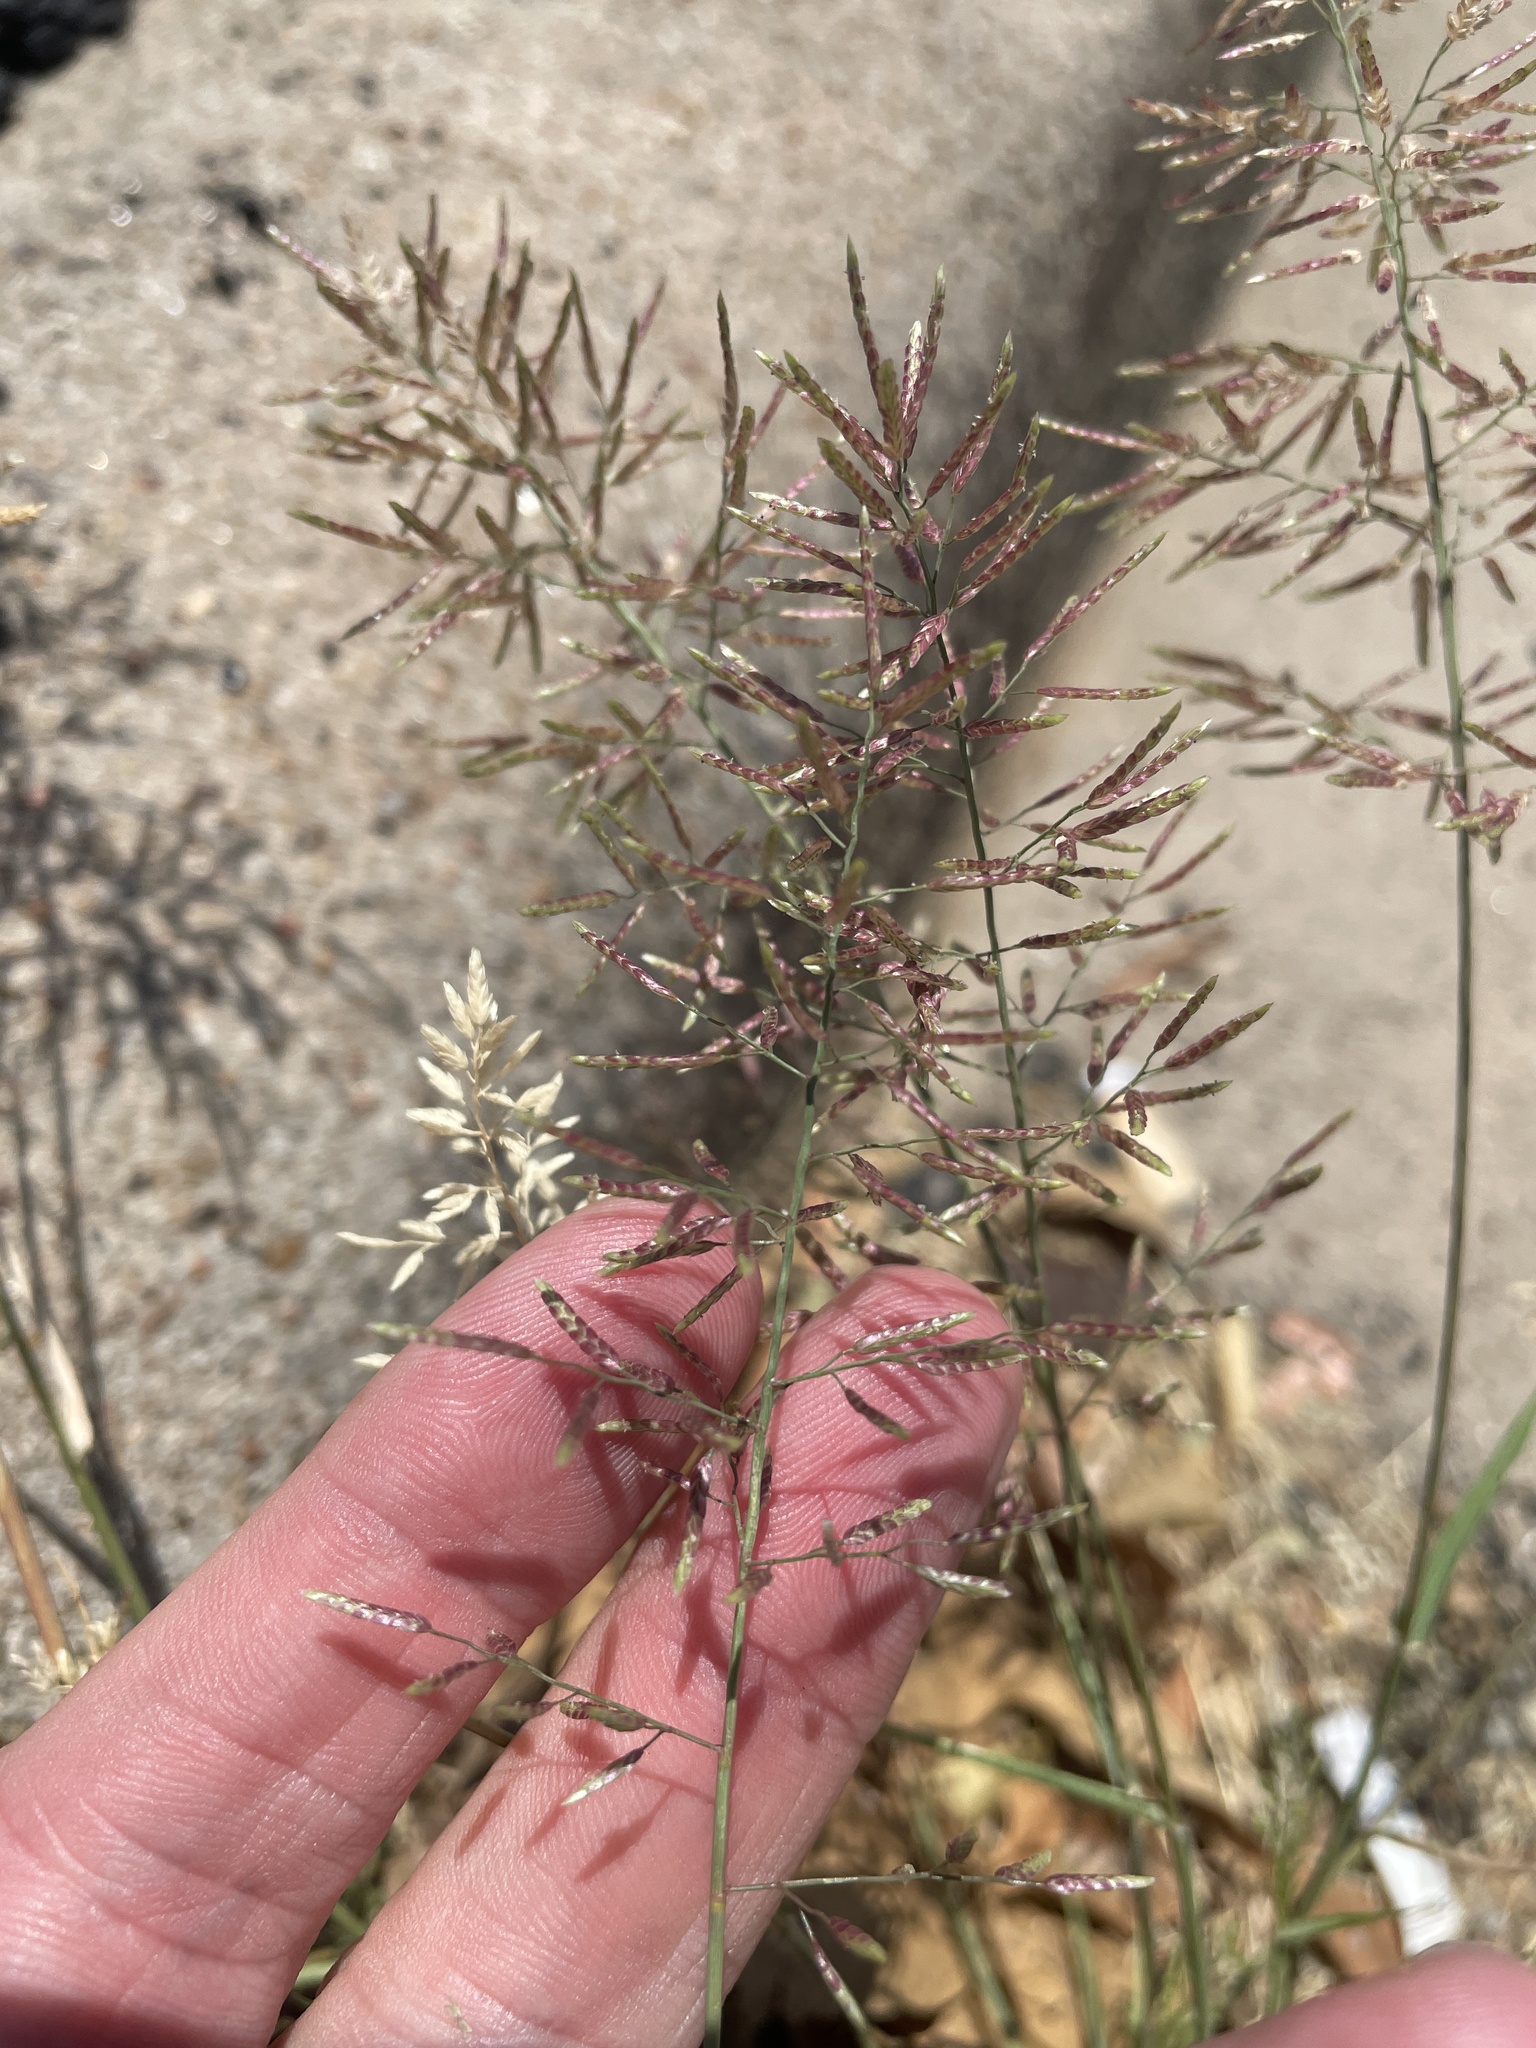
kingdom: Plantae
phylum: Tracheophyta
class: Liliopsida
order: Poales
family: Poaceae
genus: Eragrostis
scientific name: Eragrostis barrelieri
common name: Mediterranean lovegrass
